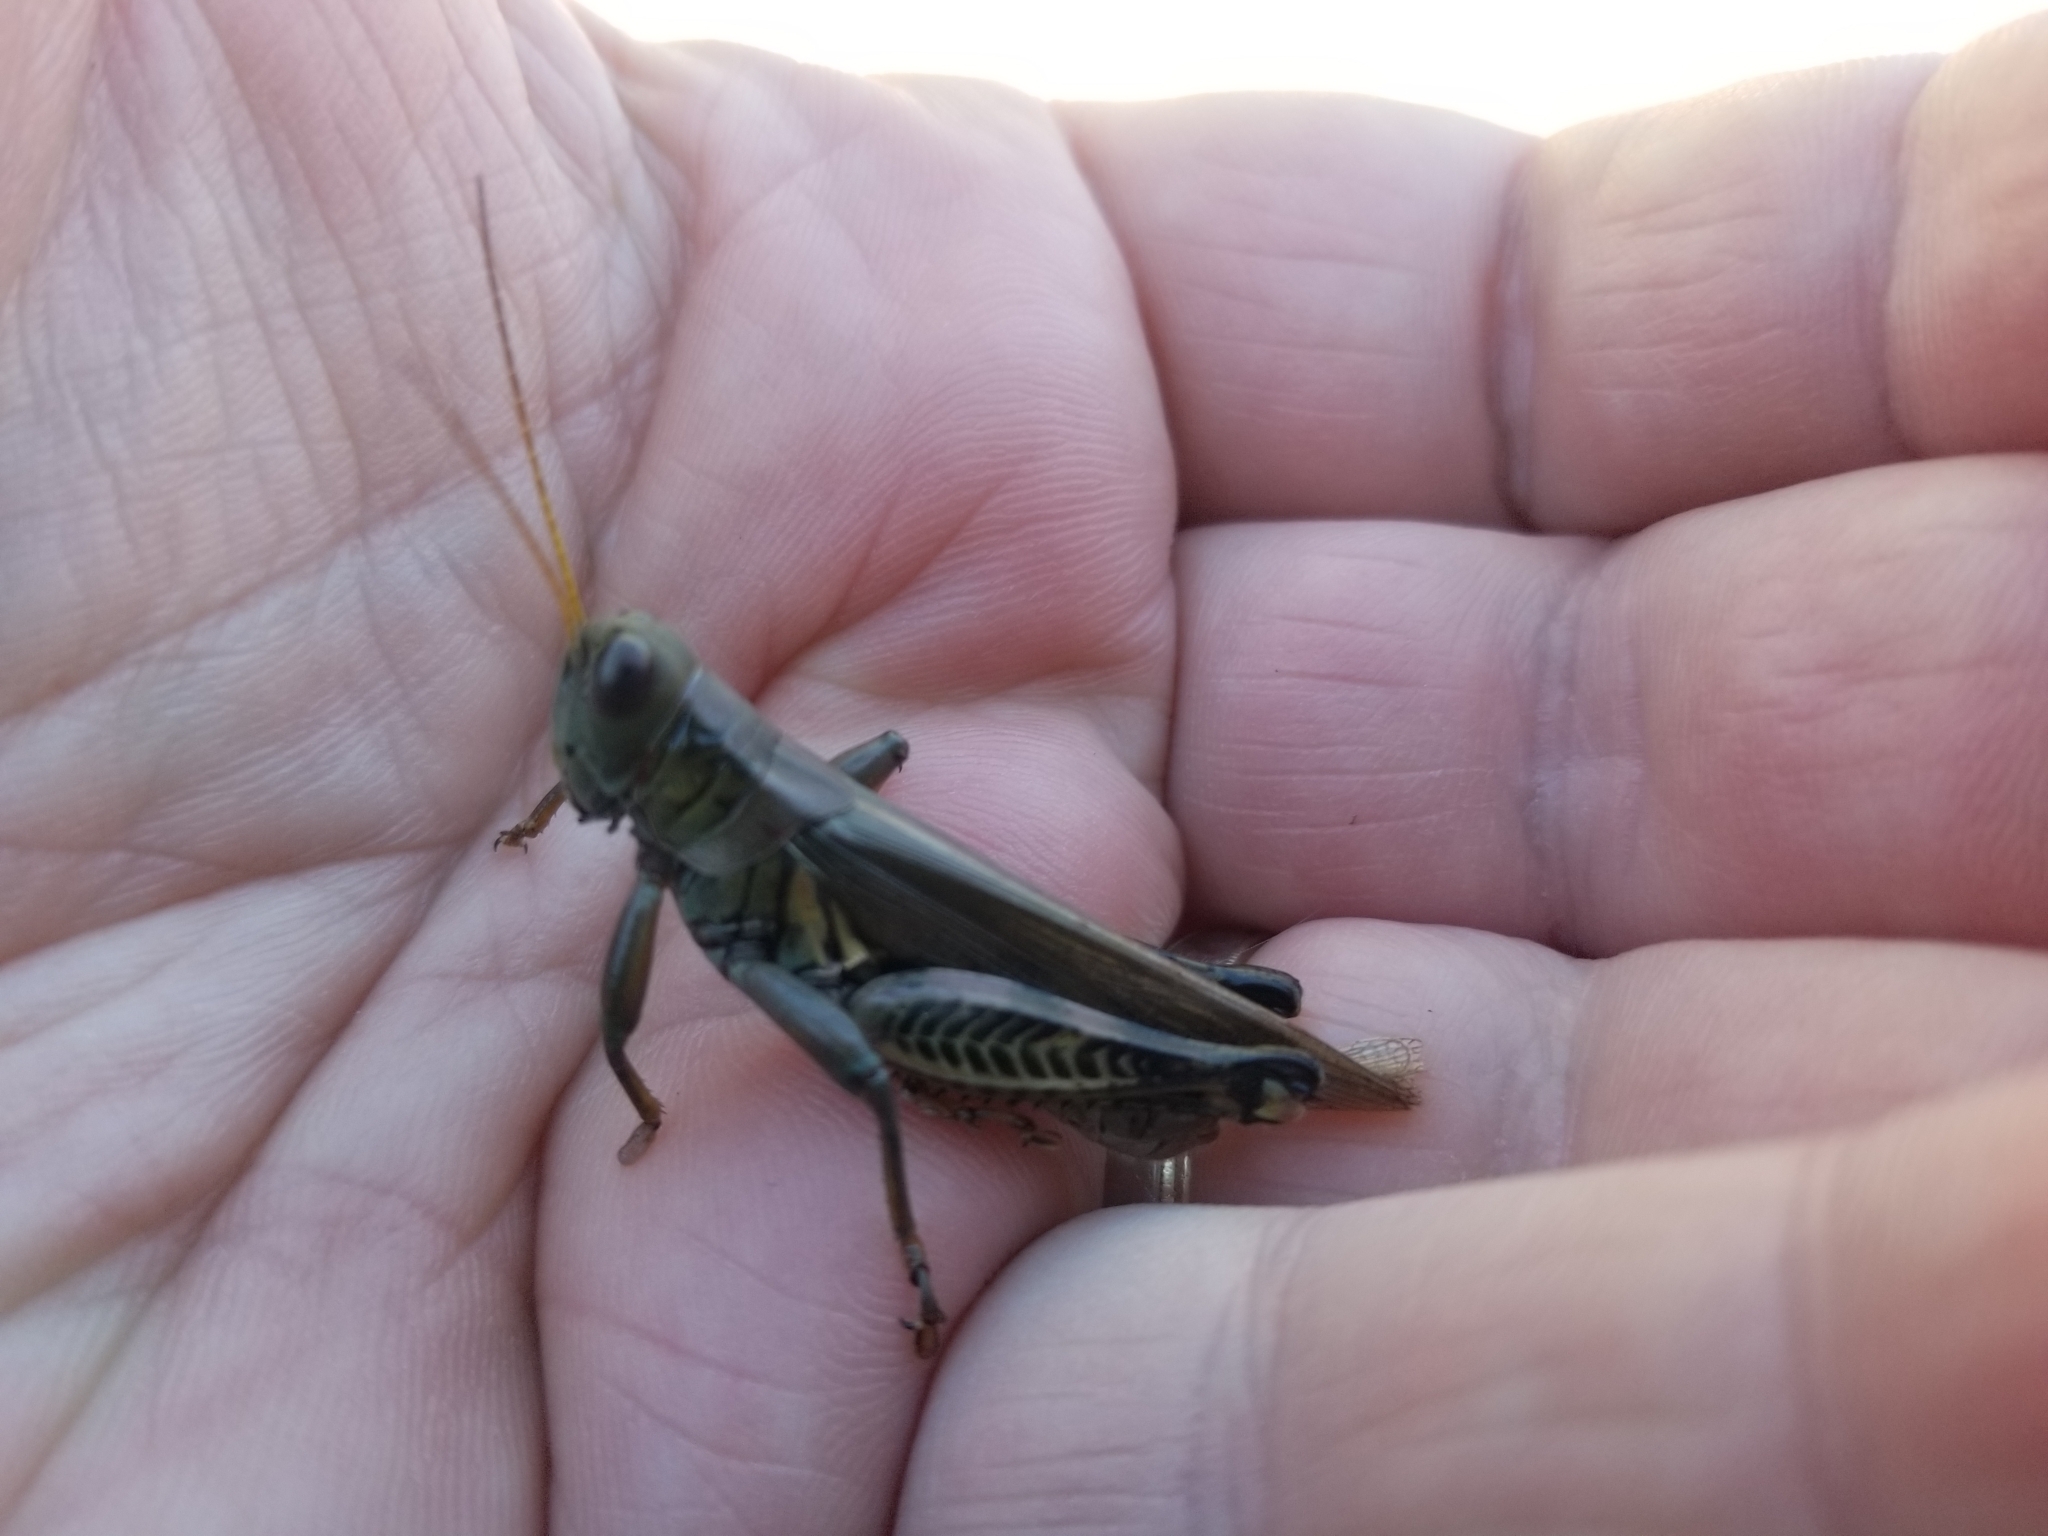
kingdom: Animalia
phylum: Arthropoda
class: Insecta
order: Orthoptera
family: Acrididae
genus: Melanoplus
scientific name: Melanoplus differentialis
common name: Differential grasshopper
